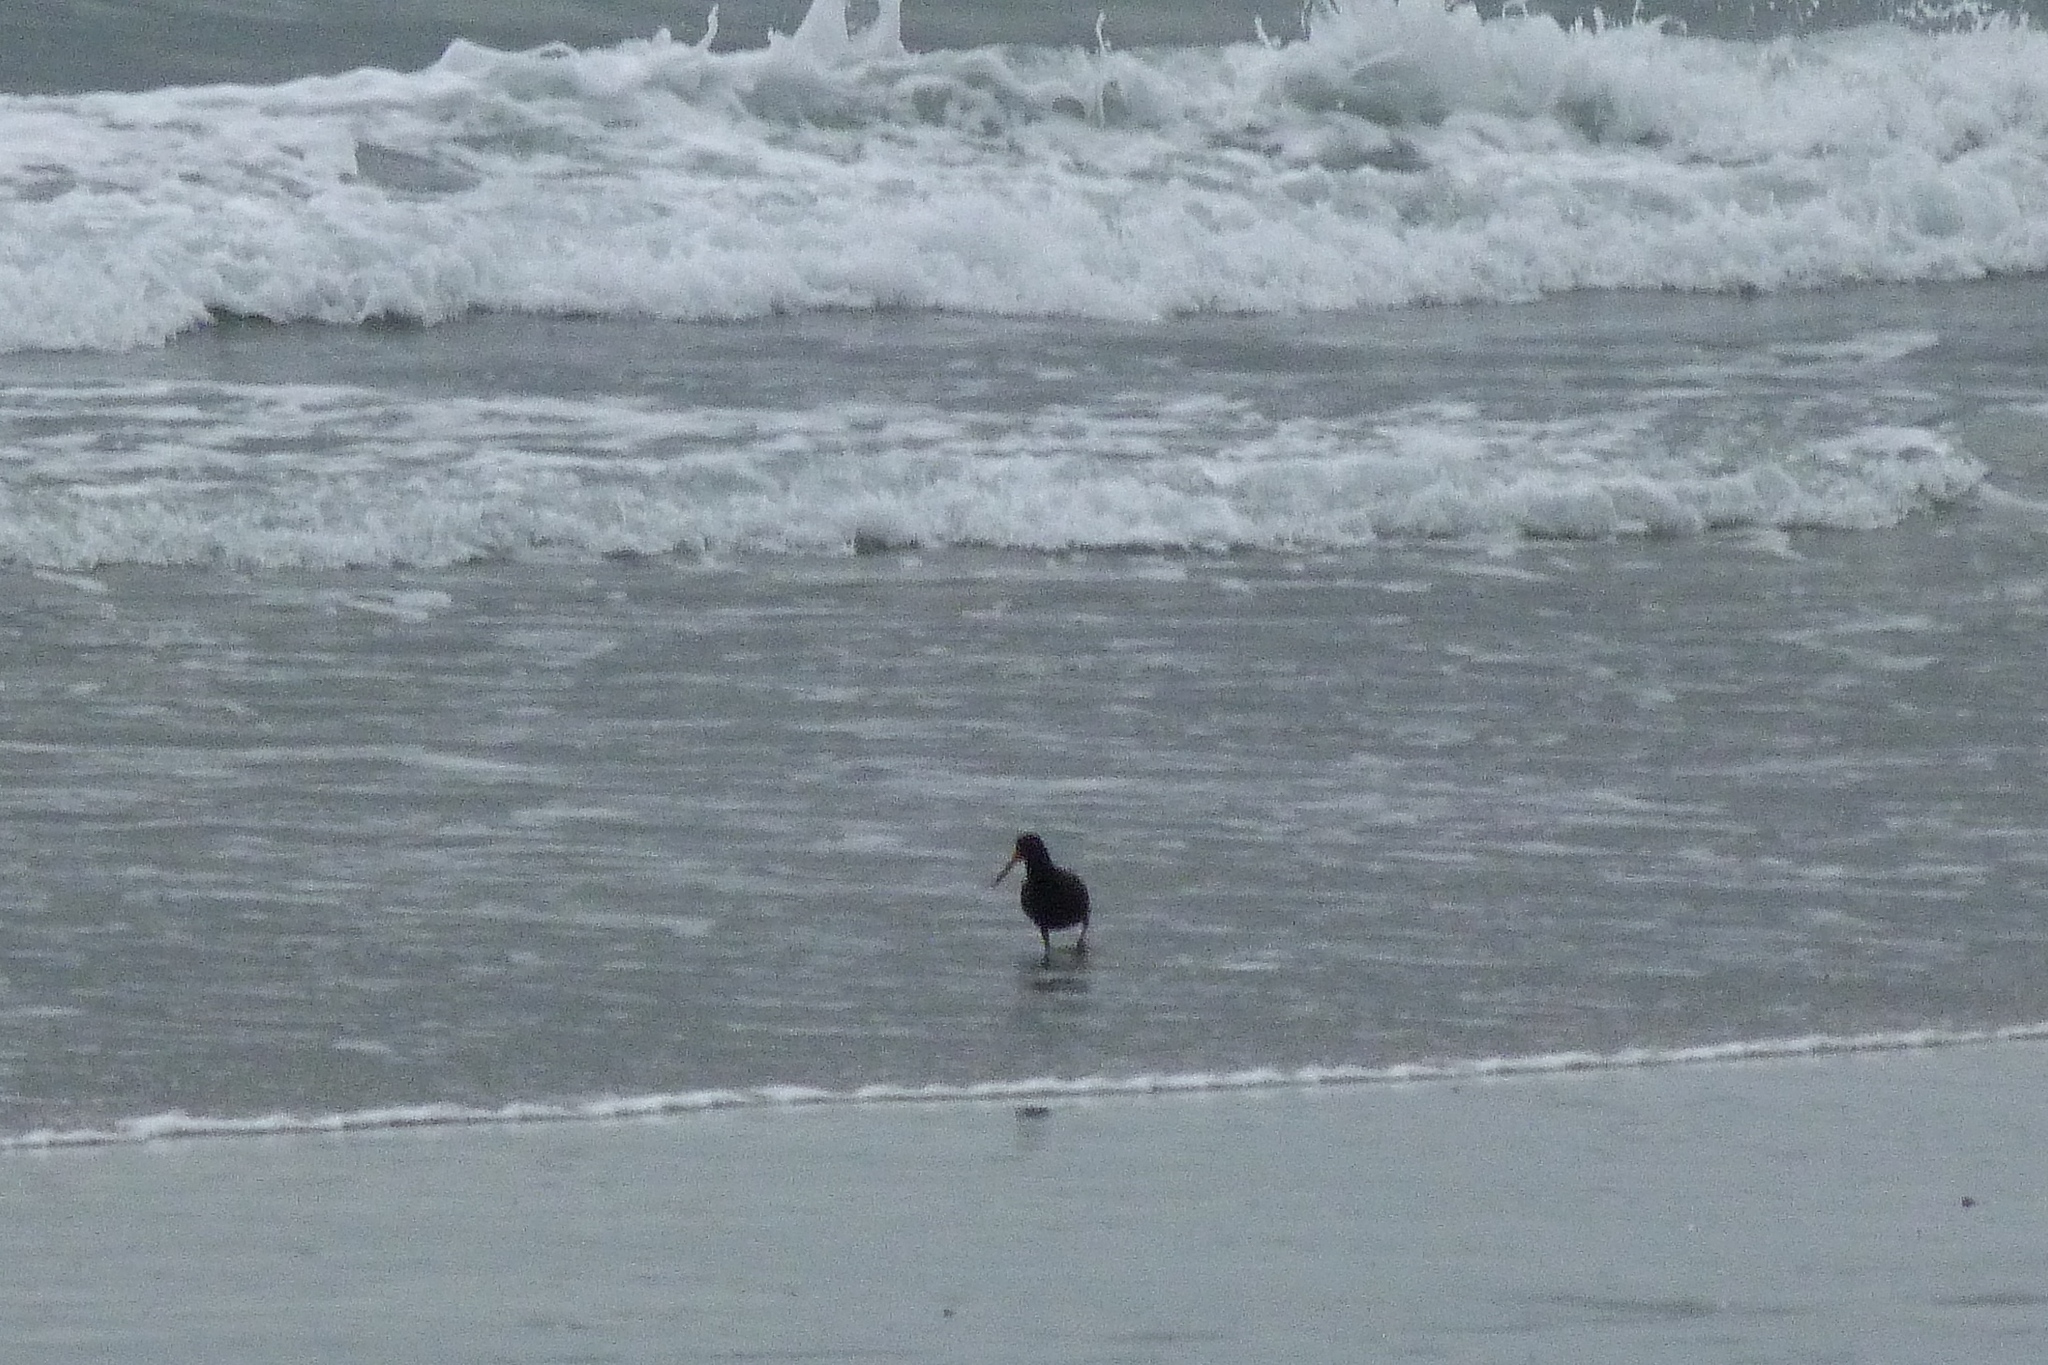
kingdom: Animalia
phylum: Chordata
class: Aves
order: Charadriiformes
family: Haematopodidae
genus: Haematopus
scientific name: Haematopus unicolor
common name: Variable oystercatcher
